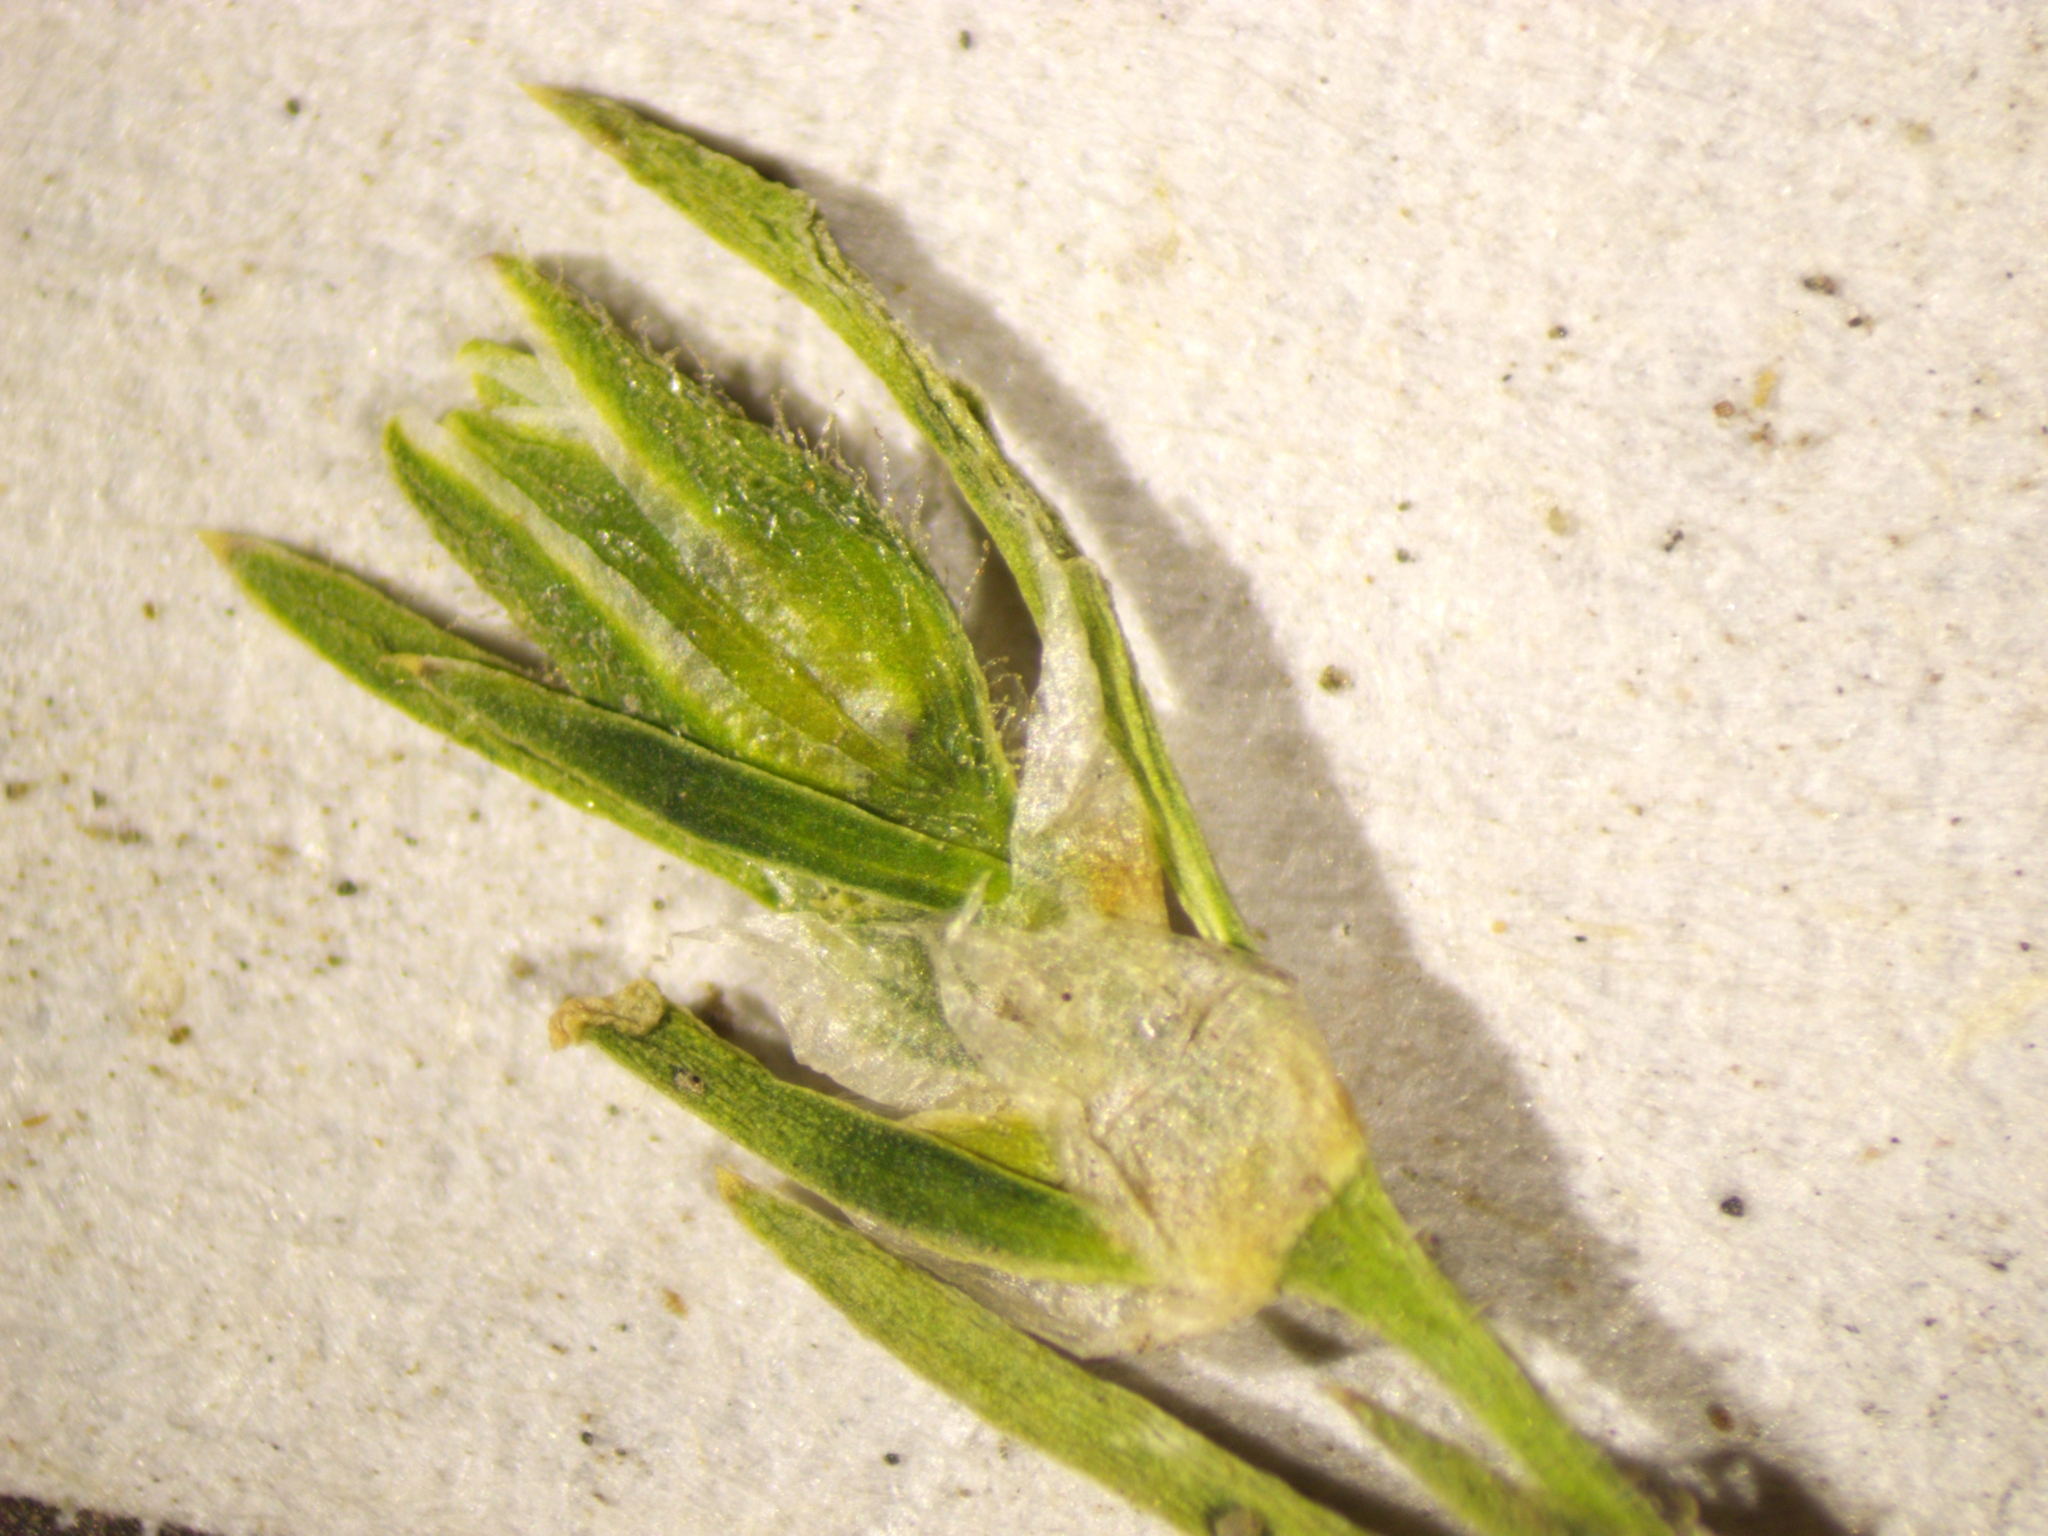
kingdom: Plantae
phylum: Tracheophyta
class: Magnoliopsida
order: Caryophyllales
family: Caryophyllaceae
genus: Spergularia
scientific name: Spergularia marina
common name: Lesser sea-spurrey
